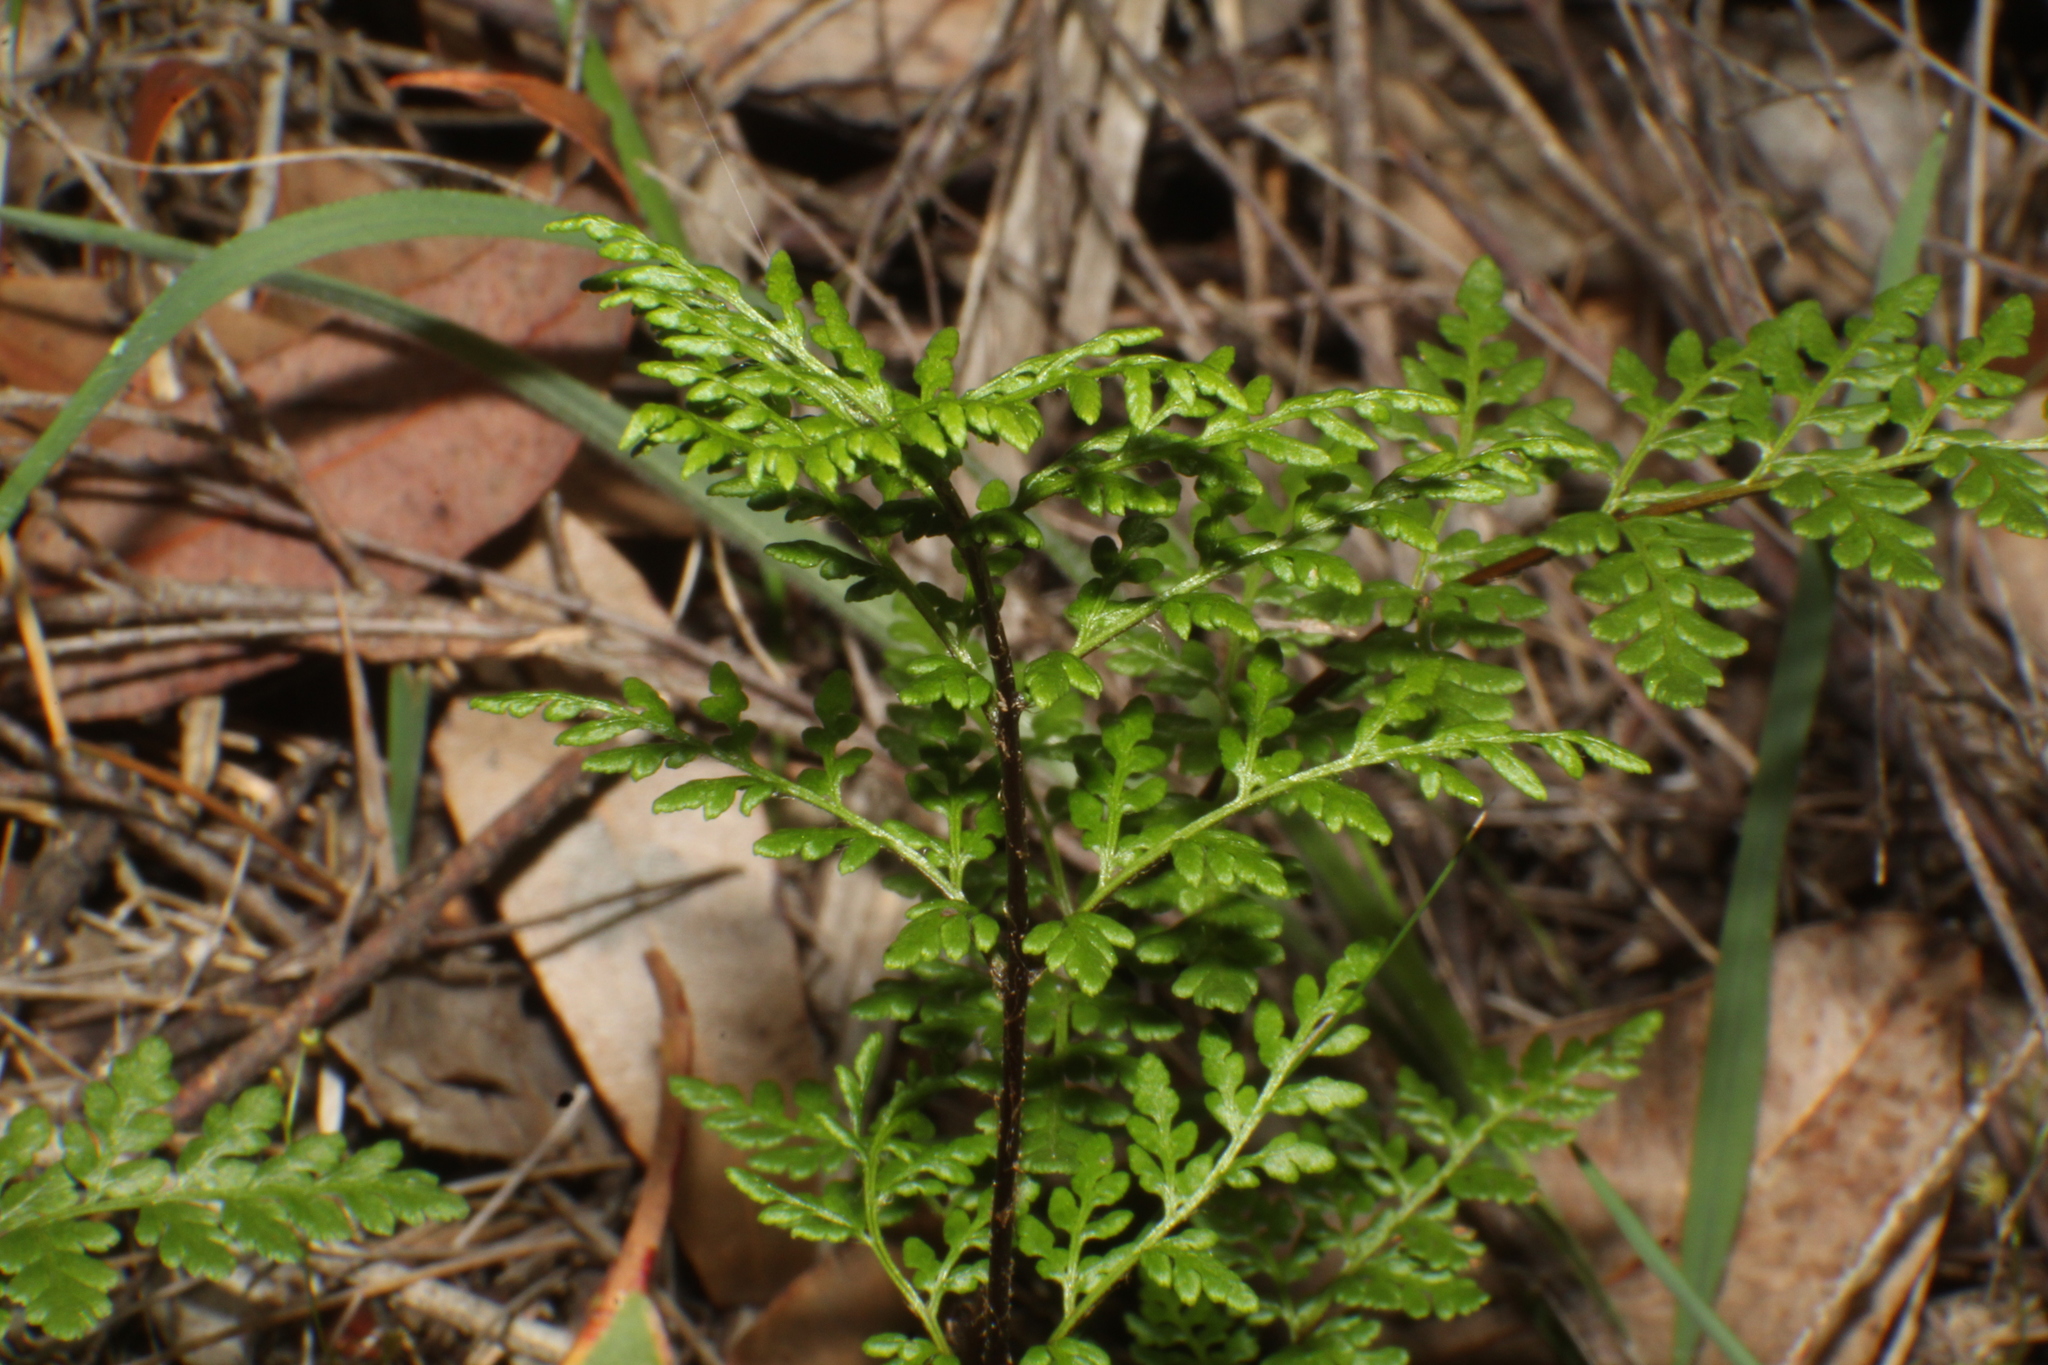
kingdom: Plantae
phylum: Tracheophyta
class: Polypodiopsida
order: Polypodiales
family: Pteridaceae
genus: Cheilanthes
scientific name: Cheilanthes austrotenuifolia
